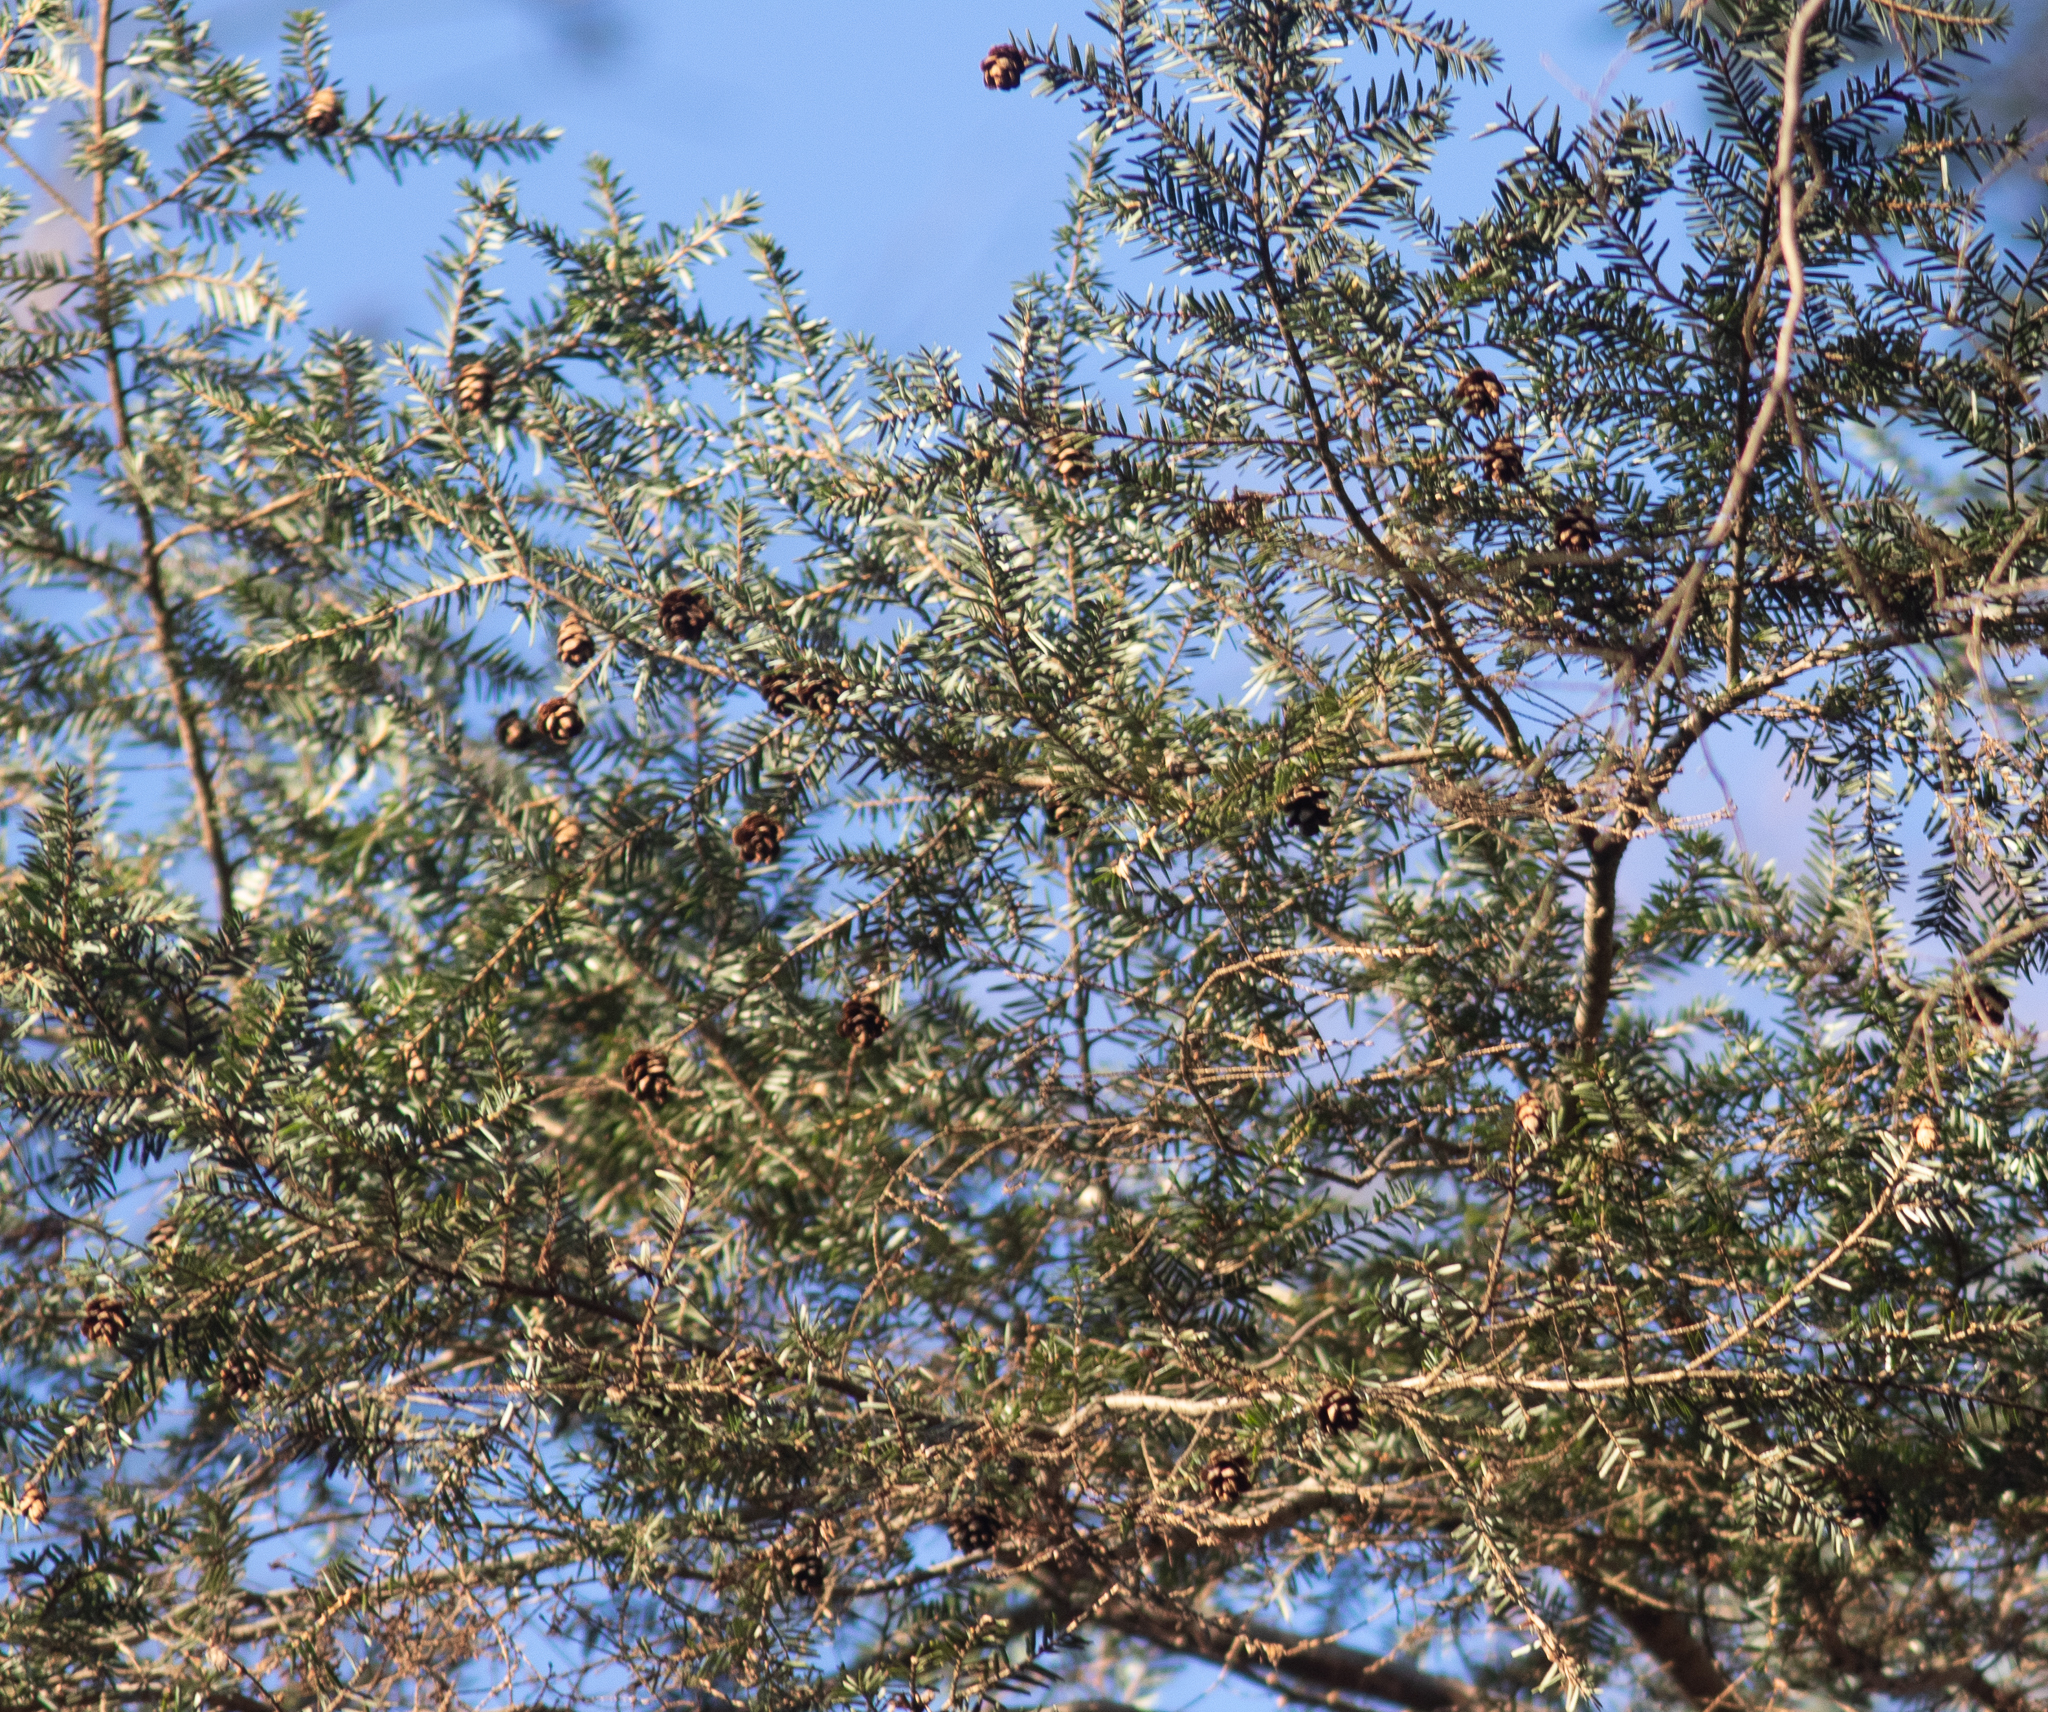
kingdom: Plantae
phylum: Tracheophyta
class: Pinopsida
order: Pinales
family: Pinaceae
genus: Tsuga
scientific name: Tsuga canadensis
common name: Eastern hemlock
